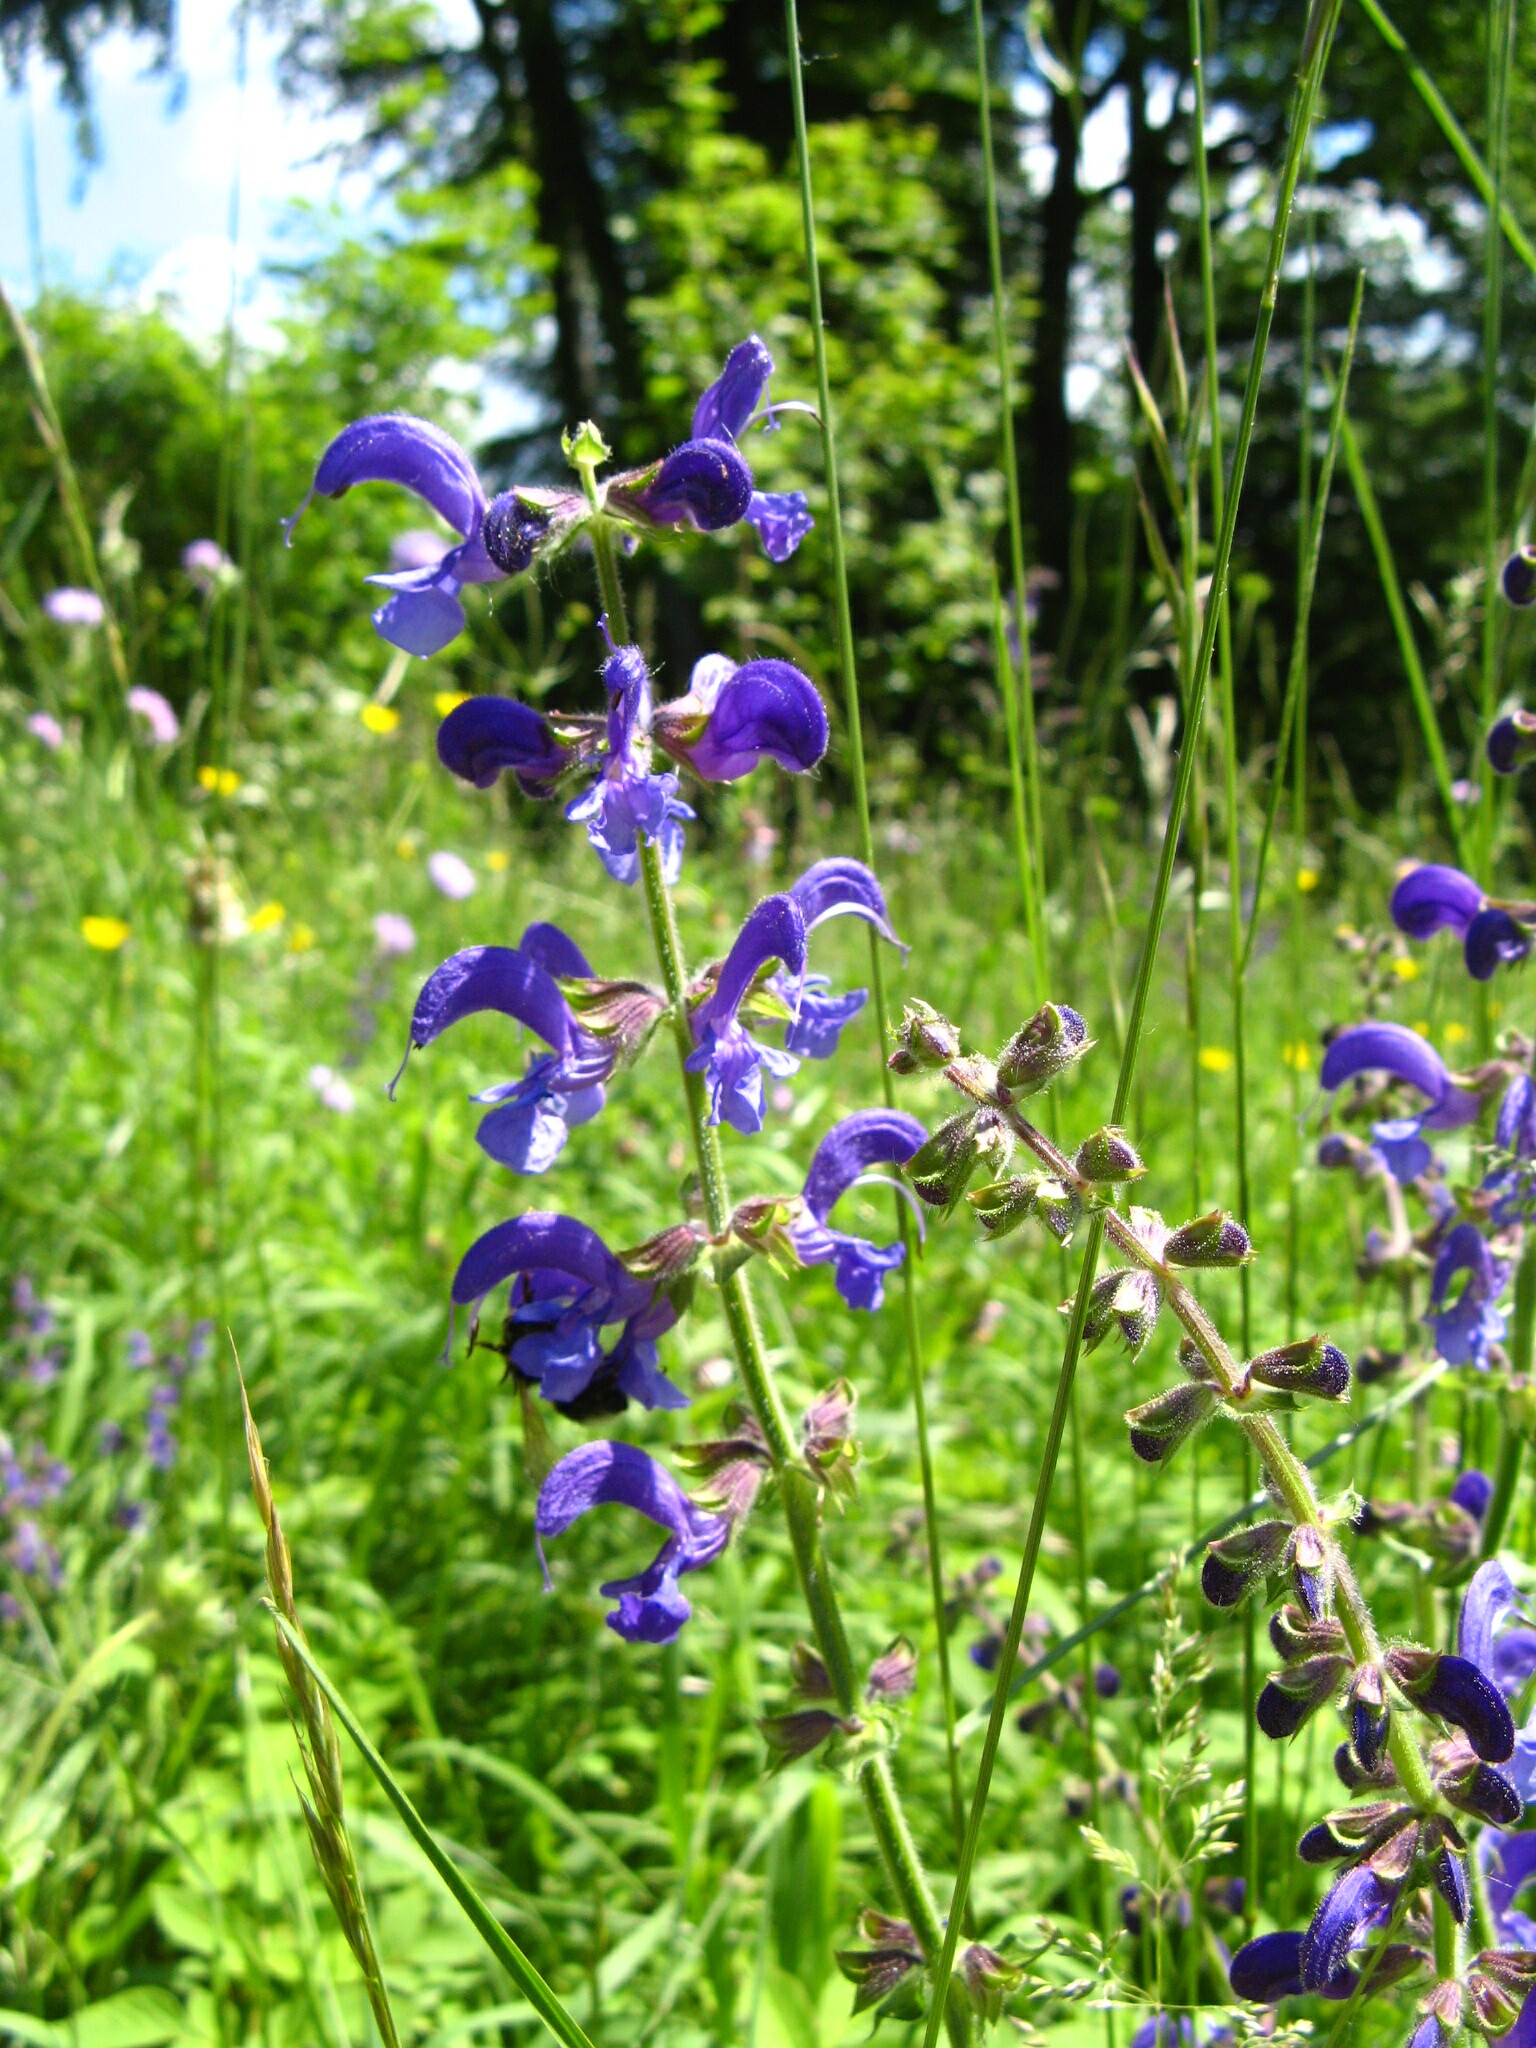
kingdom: Plantae
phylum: Tracheophyta
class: Magnoliopsida
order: Lamiales
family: Lamiaceae
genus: Salvia
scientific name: Salvia pratensis
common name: Meadow sage
